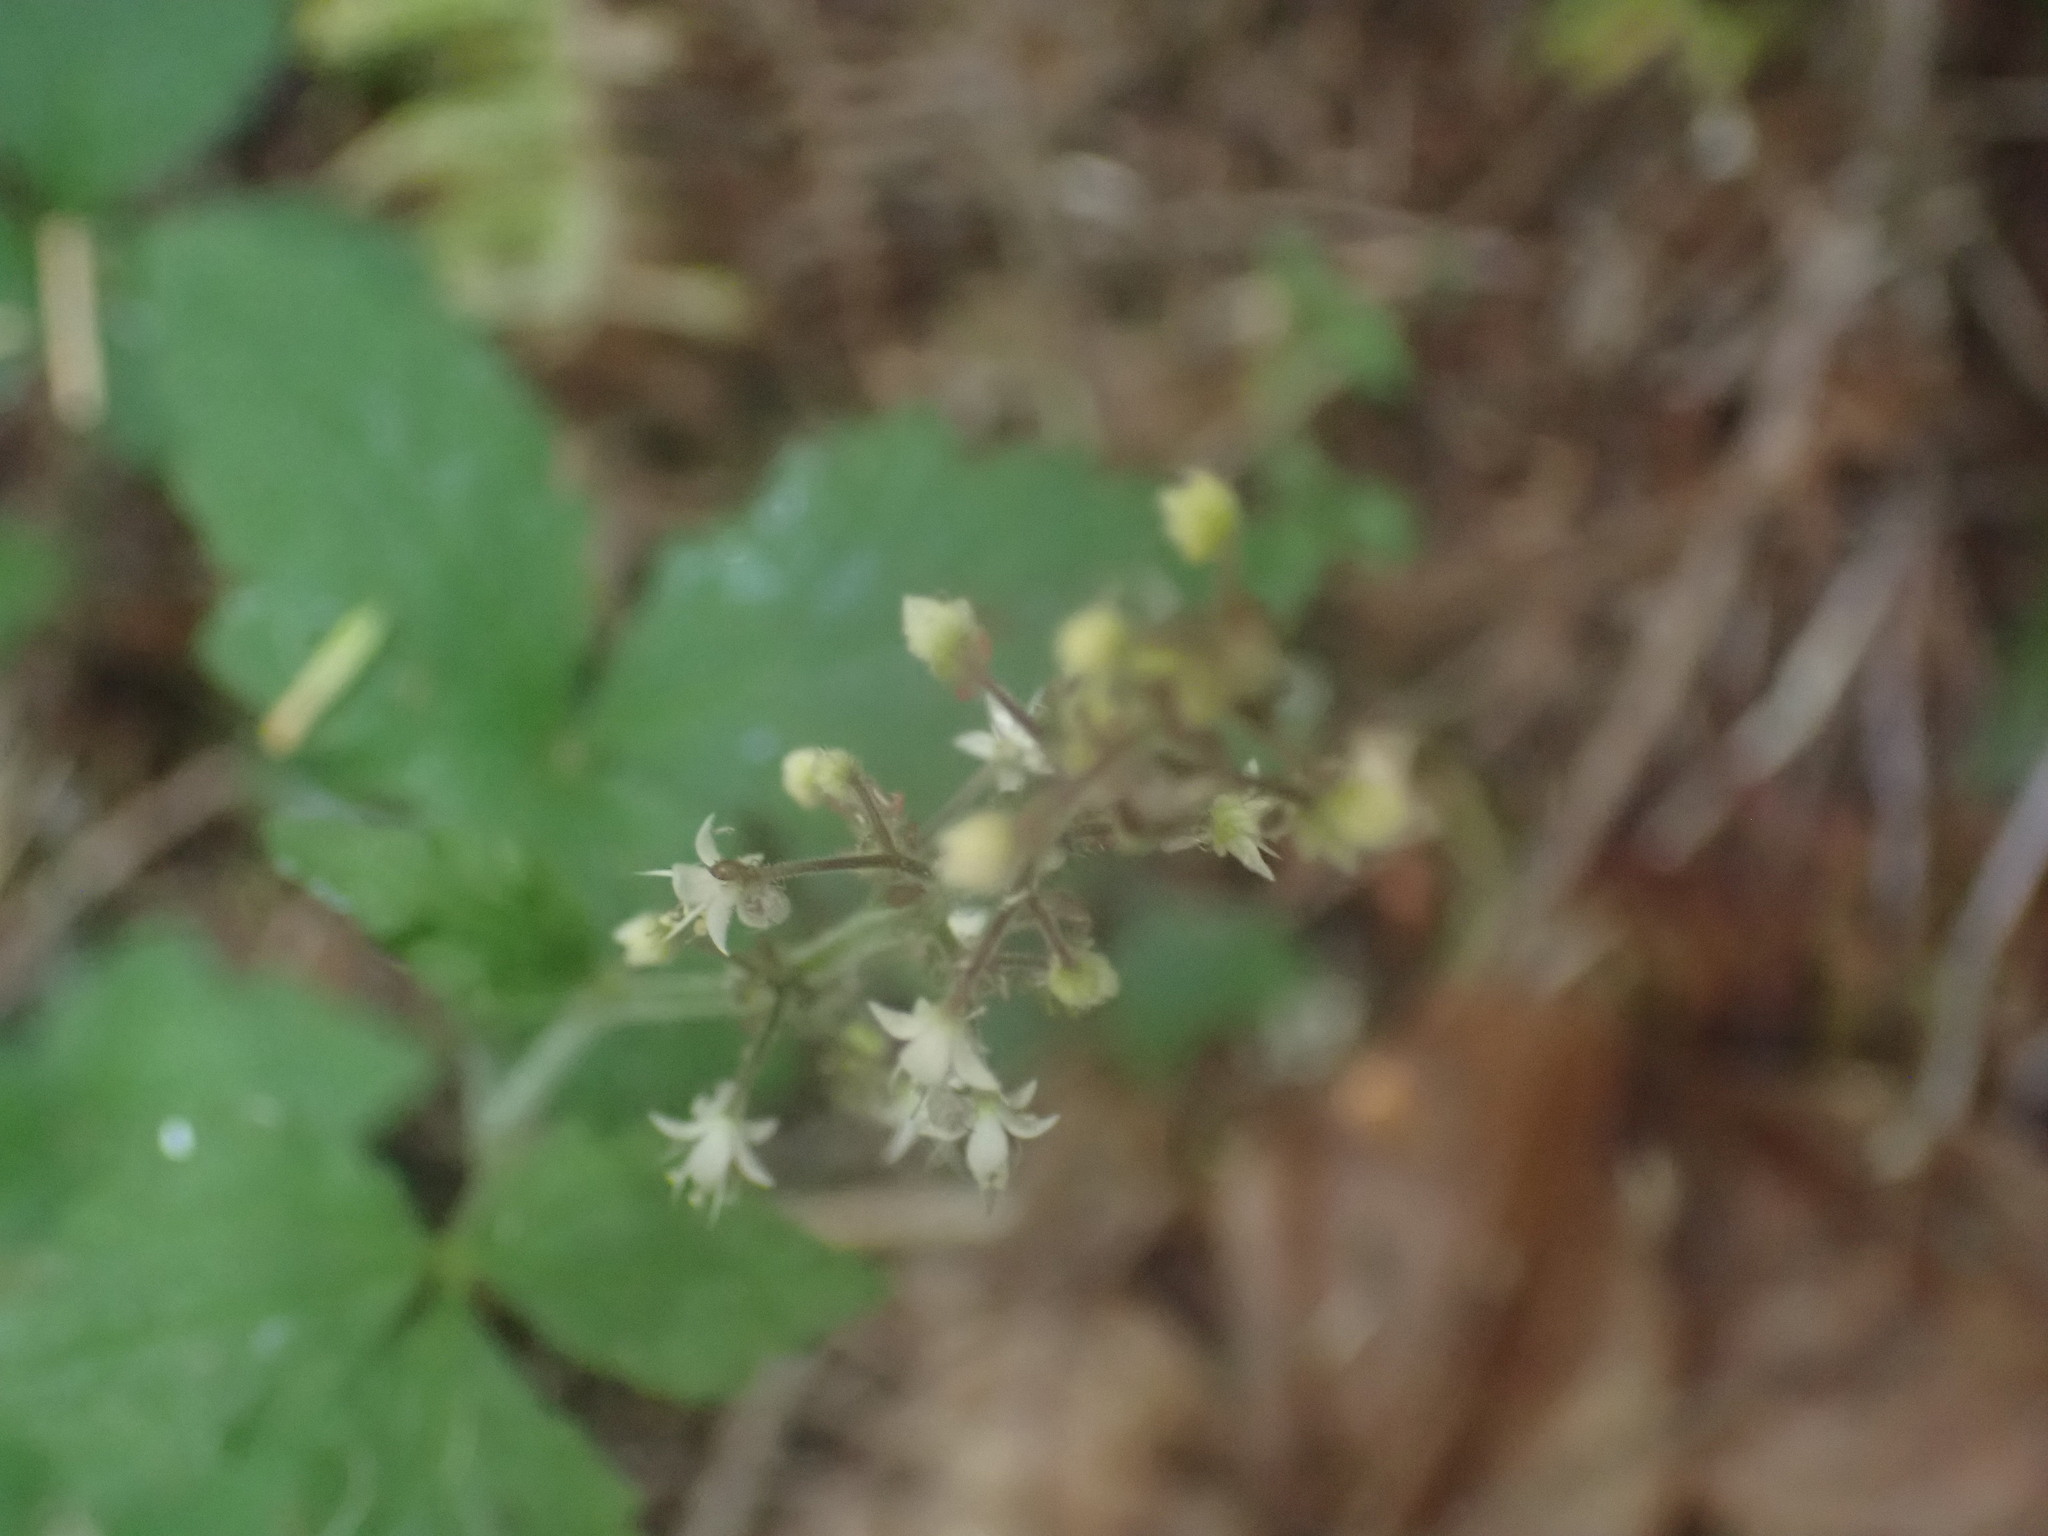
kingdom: Plantae
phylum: Tracheophyta
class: Magnoliopsida
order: Saxifragales
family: Saxifragaceae
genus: Tiarella
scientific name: Tiarella trifoliata
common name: Sugar-scoop
